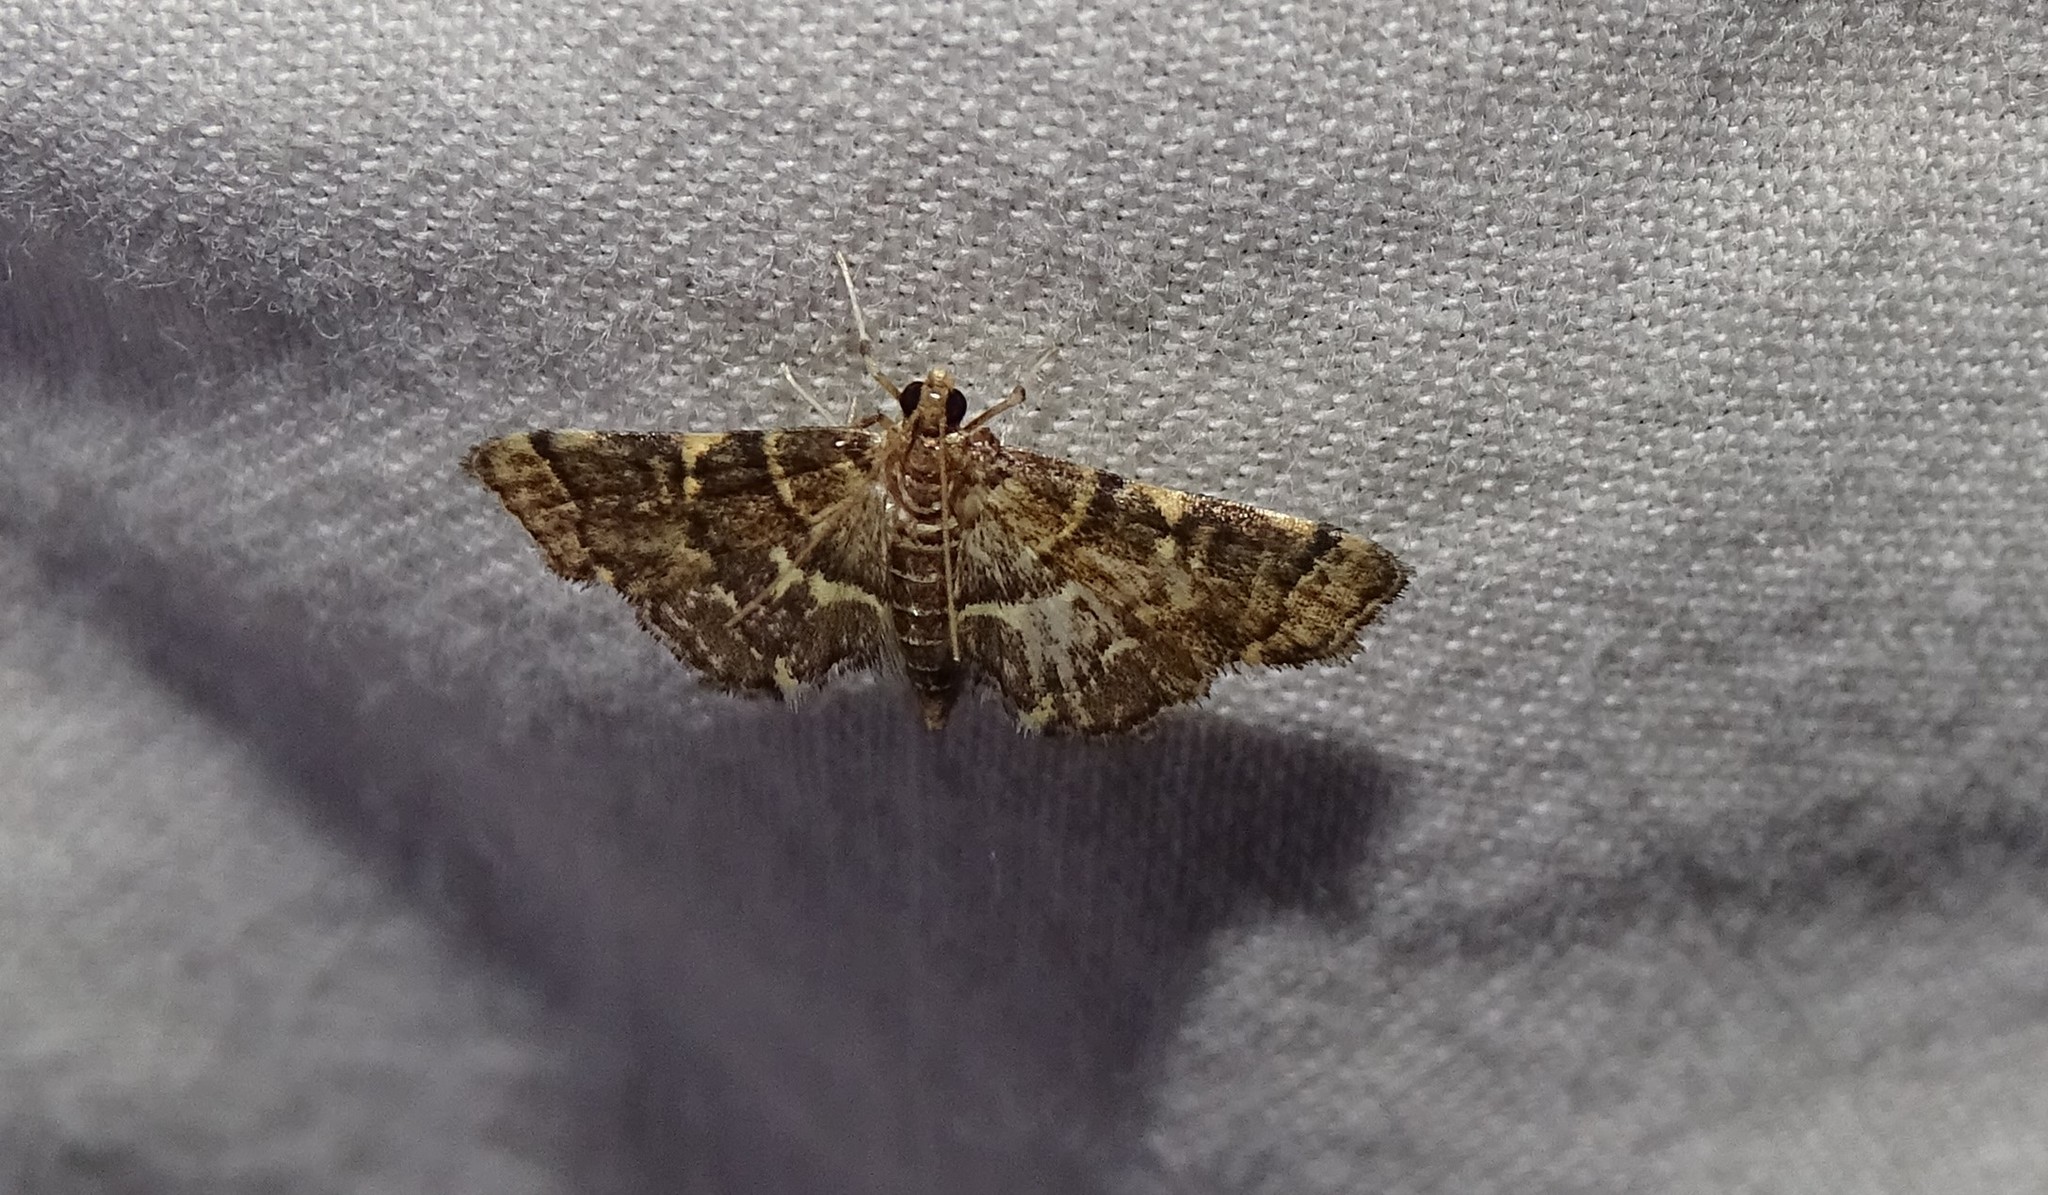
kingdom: Animalia
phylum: Arthropoda
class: Insecta
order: Lepidoptera
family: Crambidae
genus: Anageshna
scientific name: Anageshna primordialis
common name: Yellow-spotted webworm moth
